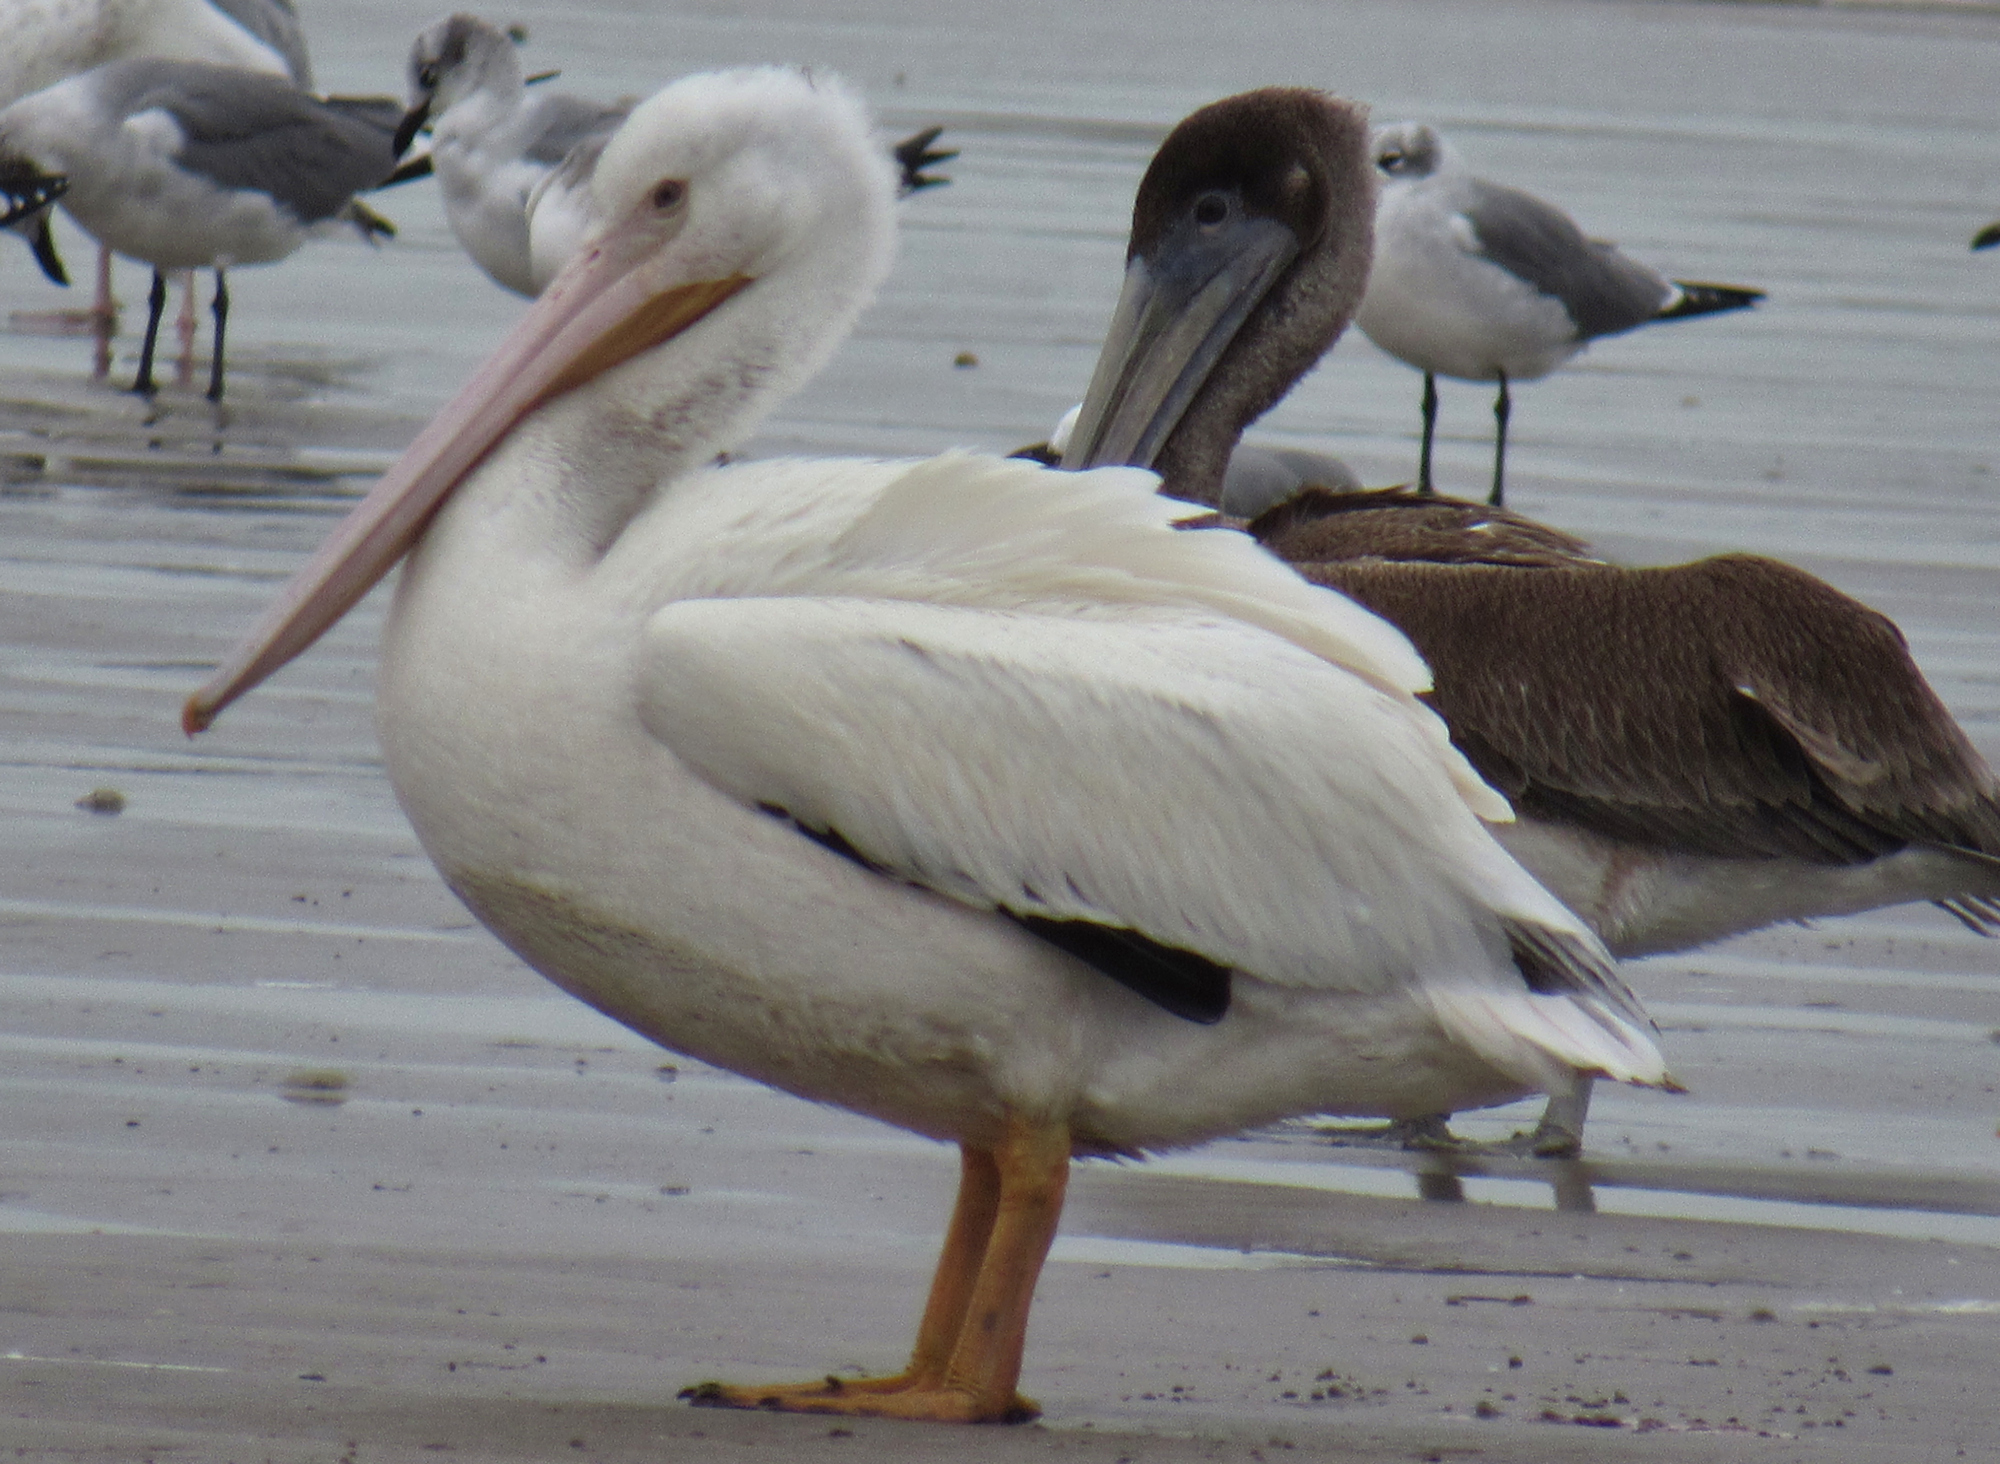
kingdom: Animalia
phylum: Chordata
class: Aves
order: Pelecaniformes
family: Pelecanidae
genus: Pelecanus
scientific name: Pelecanus erythrorhynchos
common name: American white pelican
